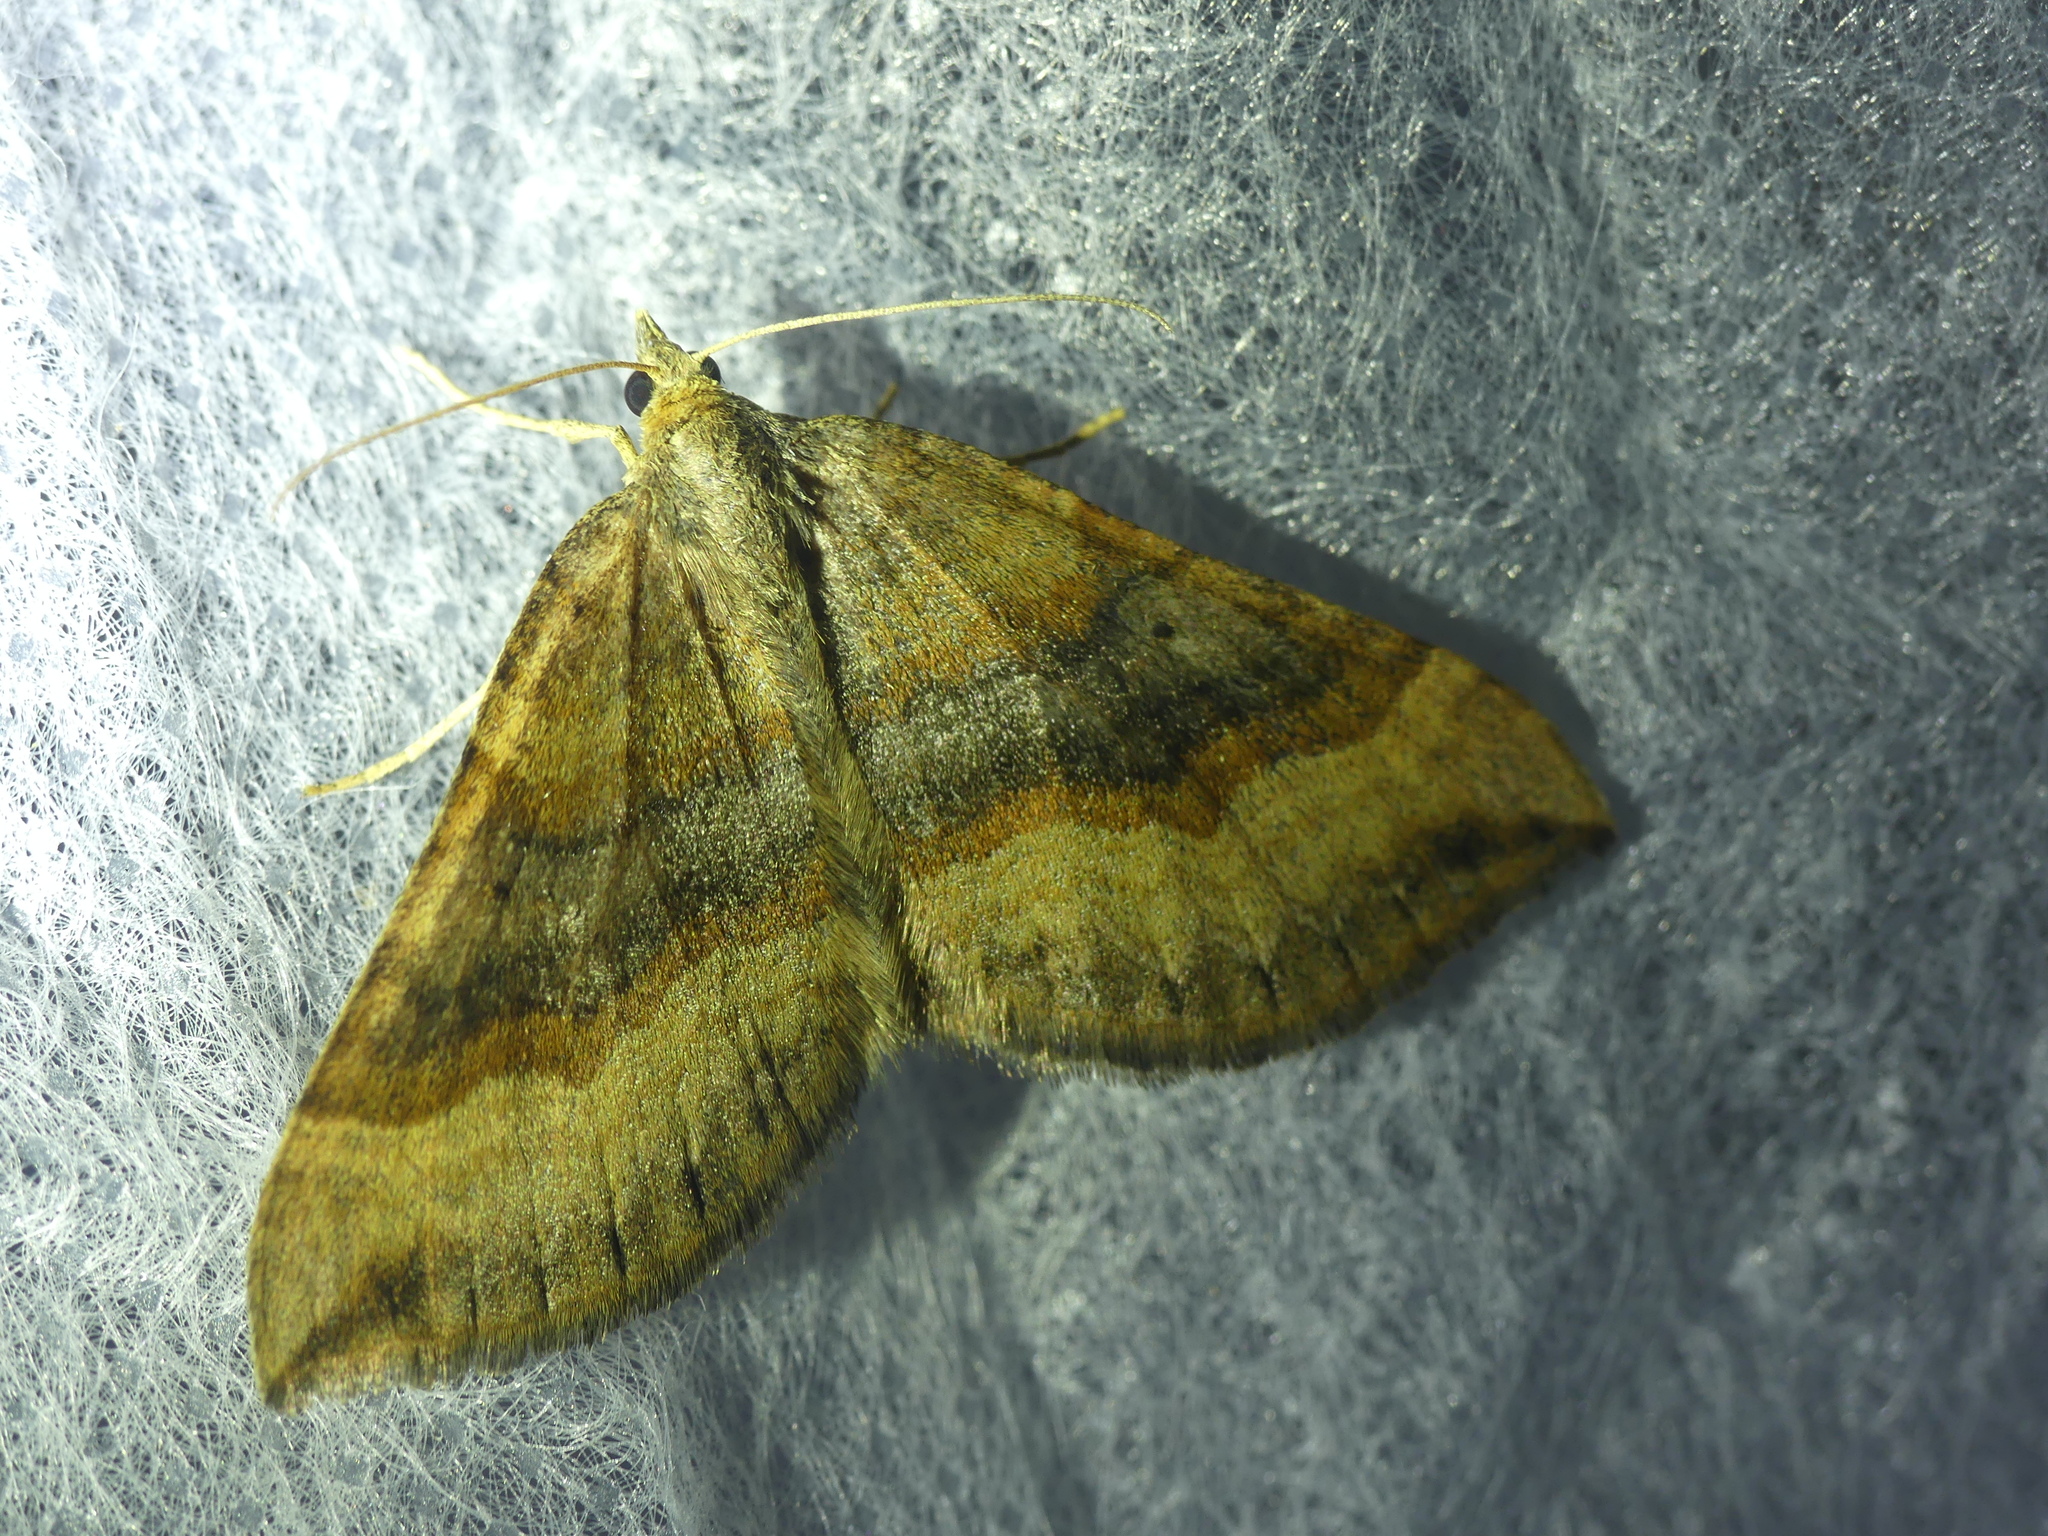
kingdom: Animalia
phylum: Arthropoda
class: Insecta
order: Lepidoptera
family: Geometridae
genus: Scotopteryx
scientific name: Scotopteryx chenopodiata
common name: Shaded broad-bar
